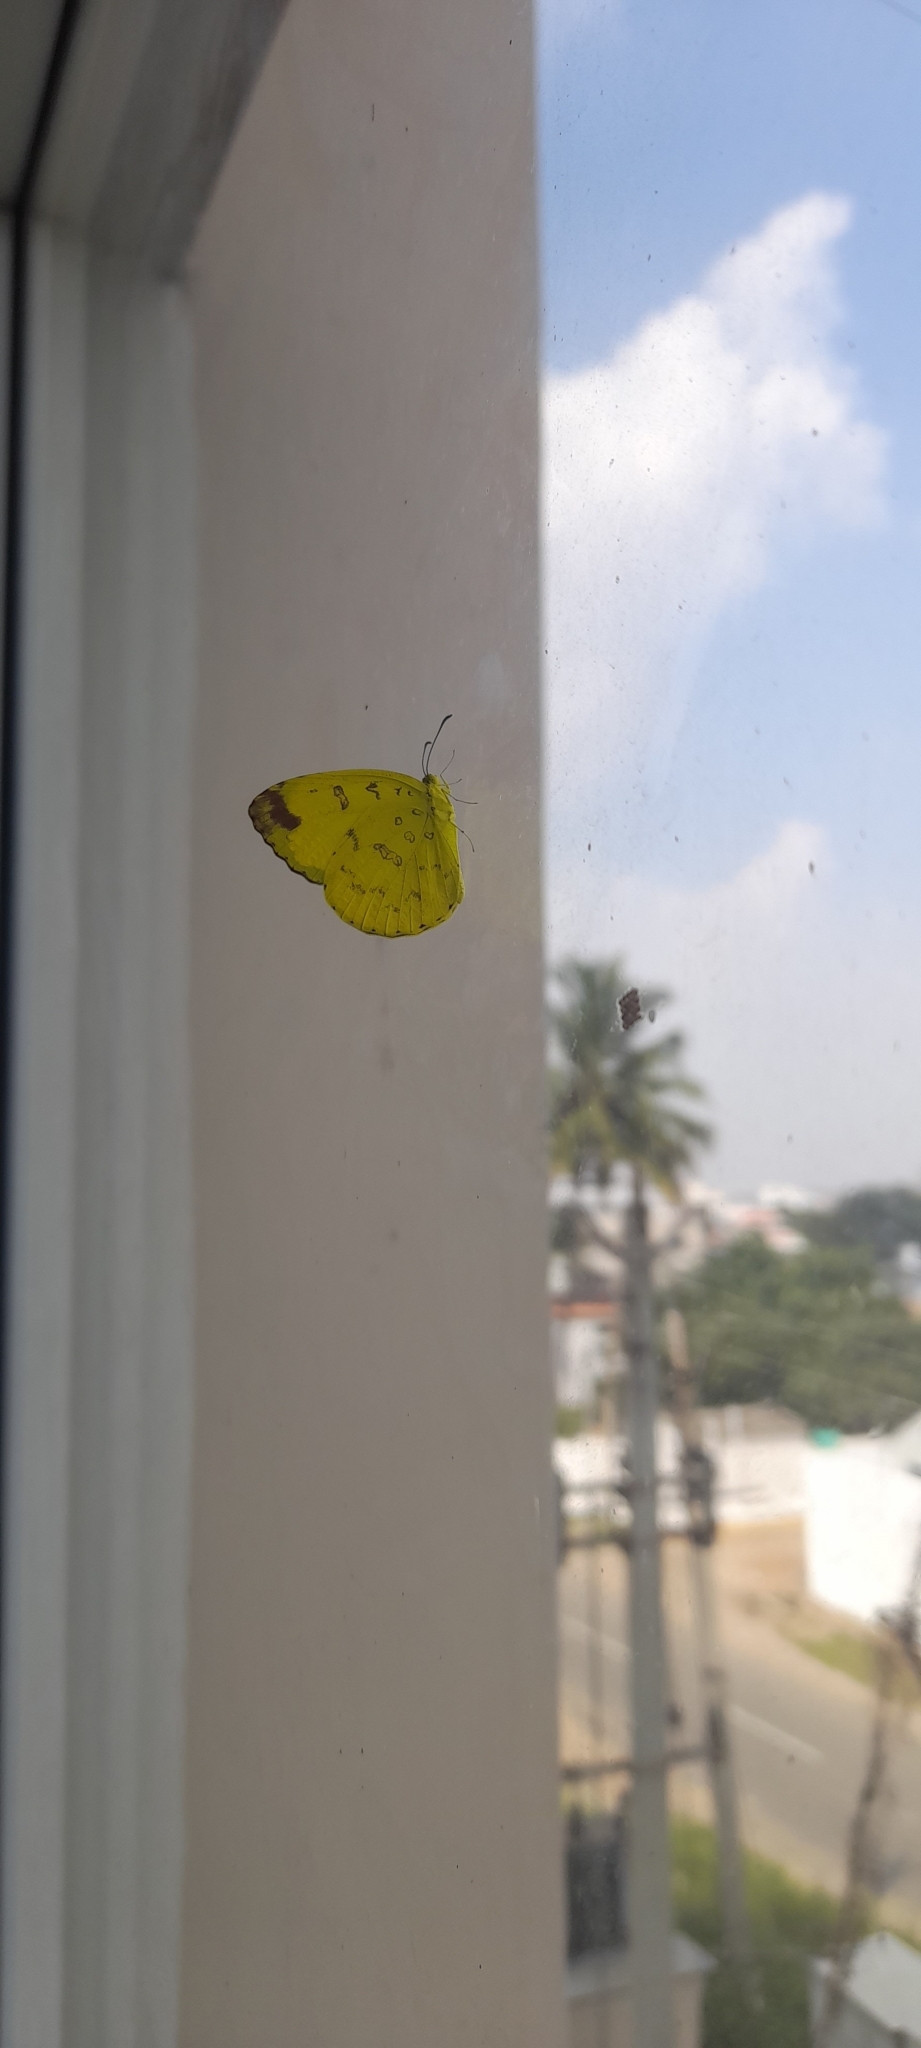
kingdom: Animalia
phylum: Arthropoda
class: Insecta
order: Lepidoptera
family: Pieridae
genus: Eurema
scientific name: Eurema blanda
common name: Three-spot grass yellow
